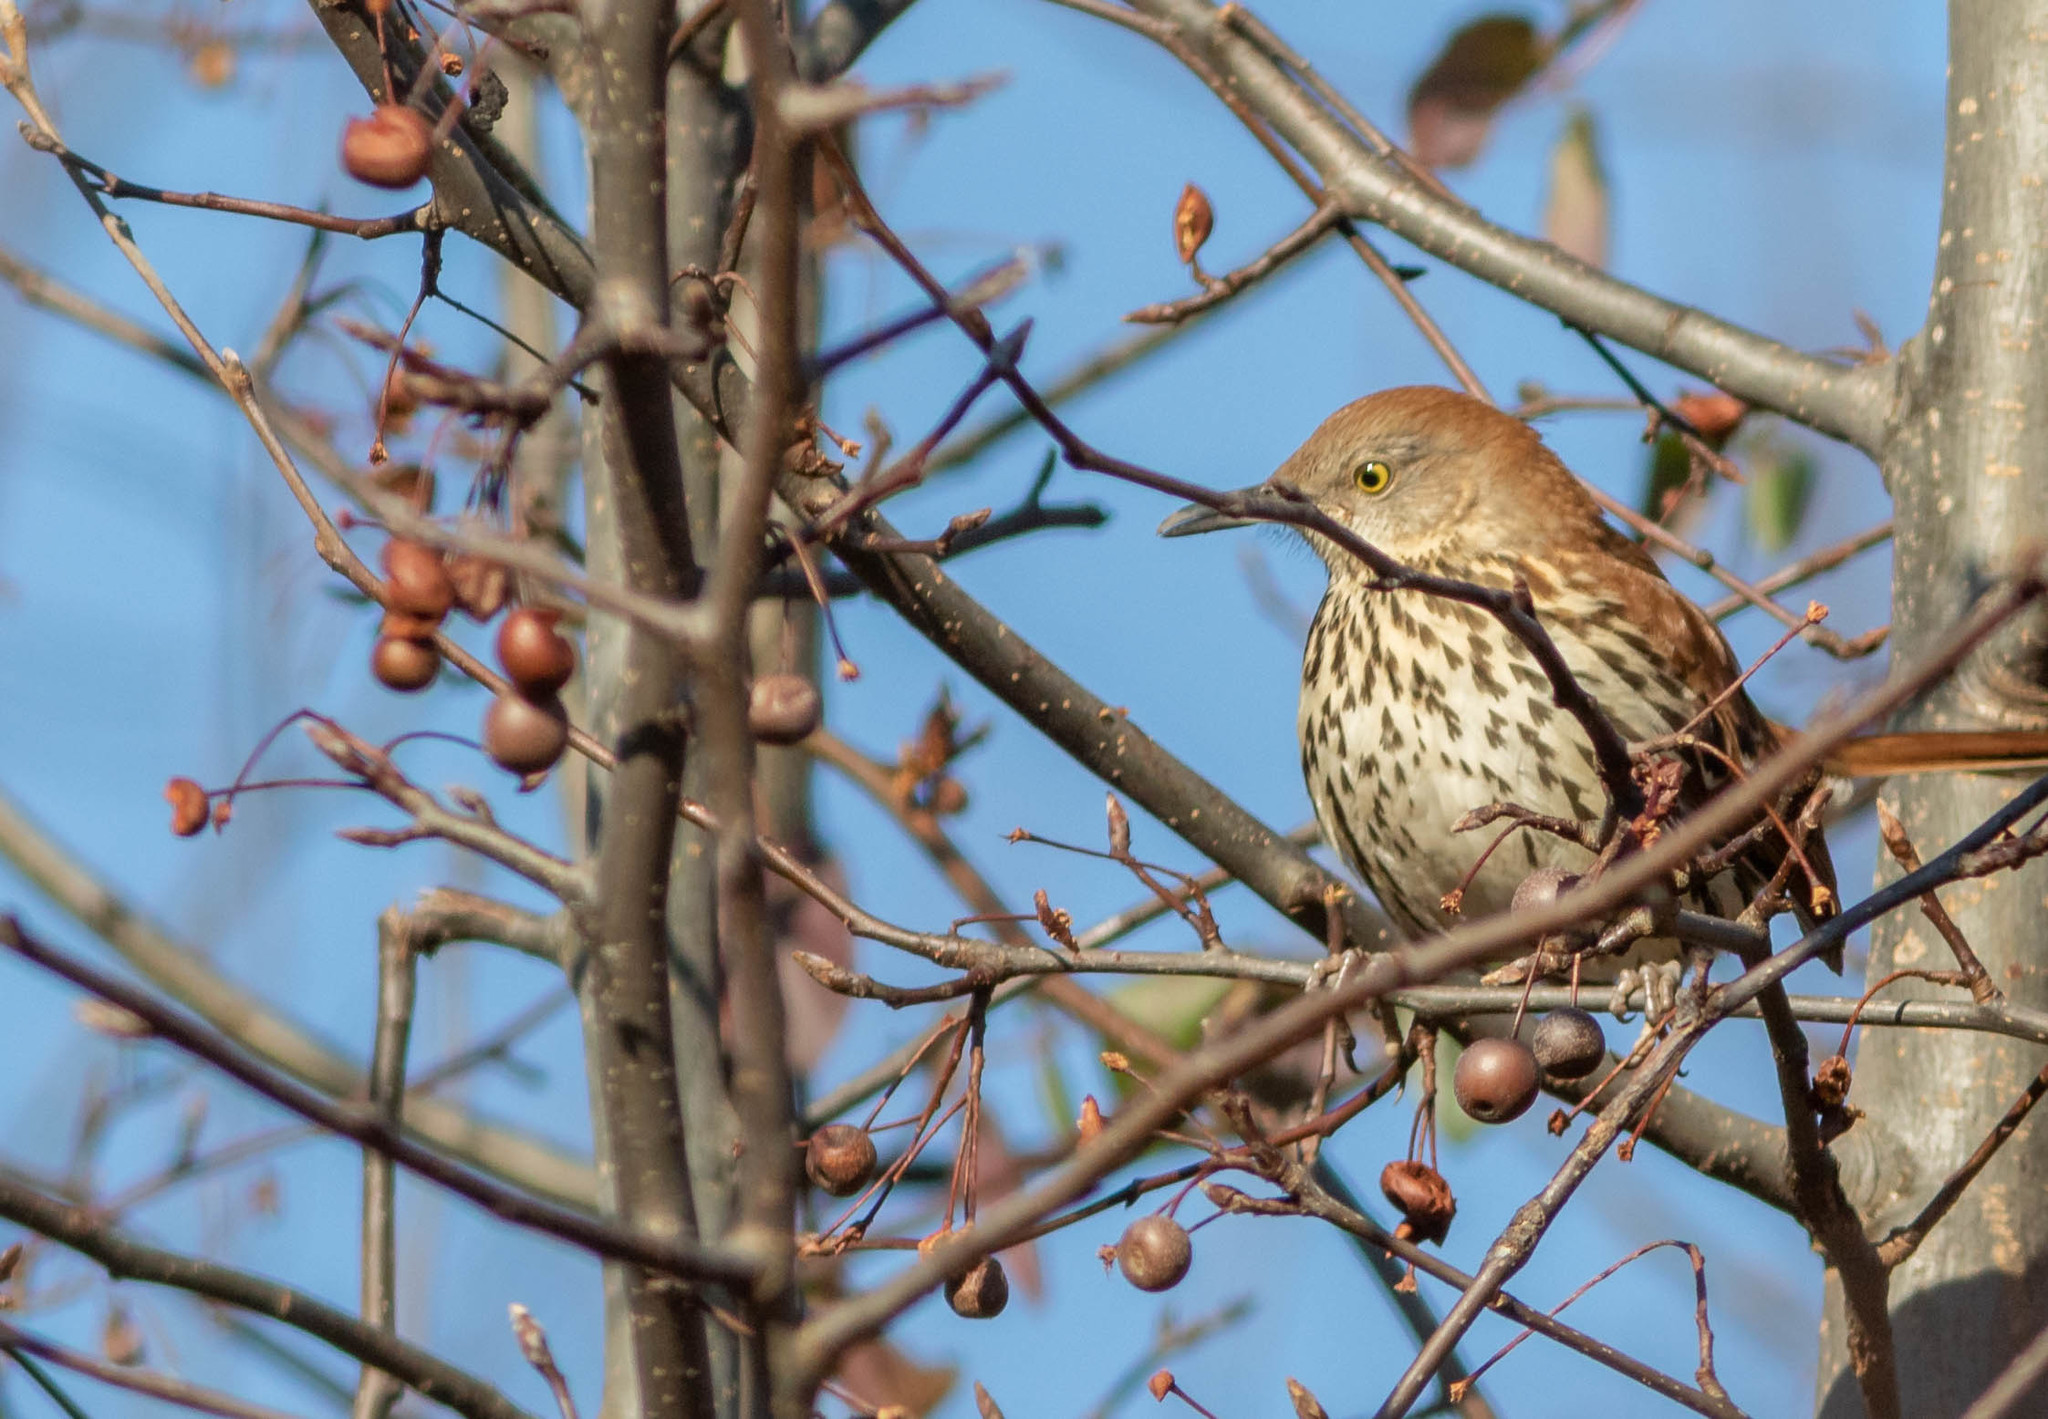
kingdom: Animalia
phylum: Chordata
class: Aves
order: Passeriformes
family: Mimidae
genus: Toxostoma
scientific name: Toxostoma rufum
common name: Brown thrasher
